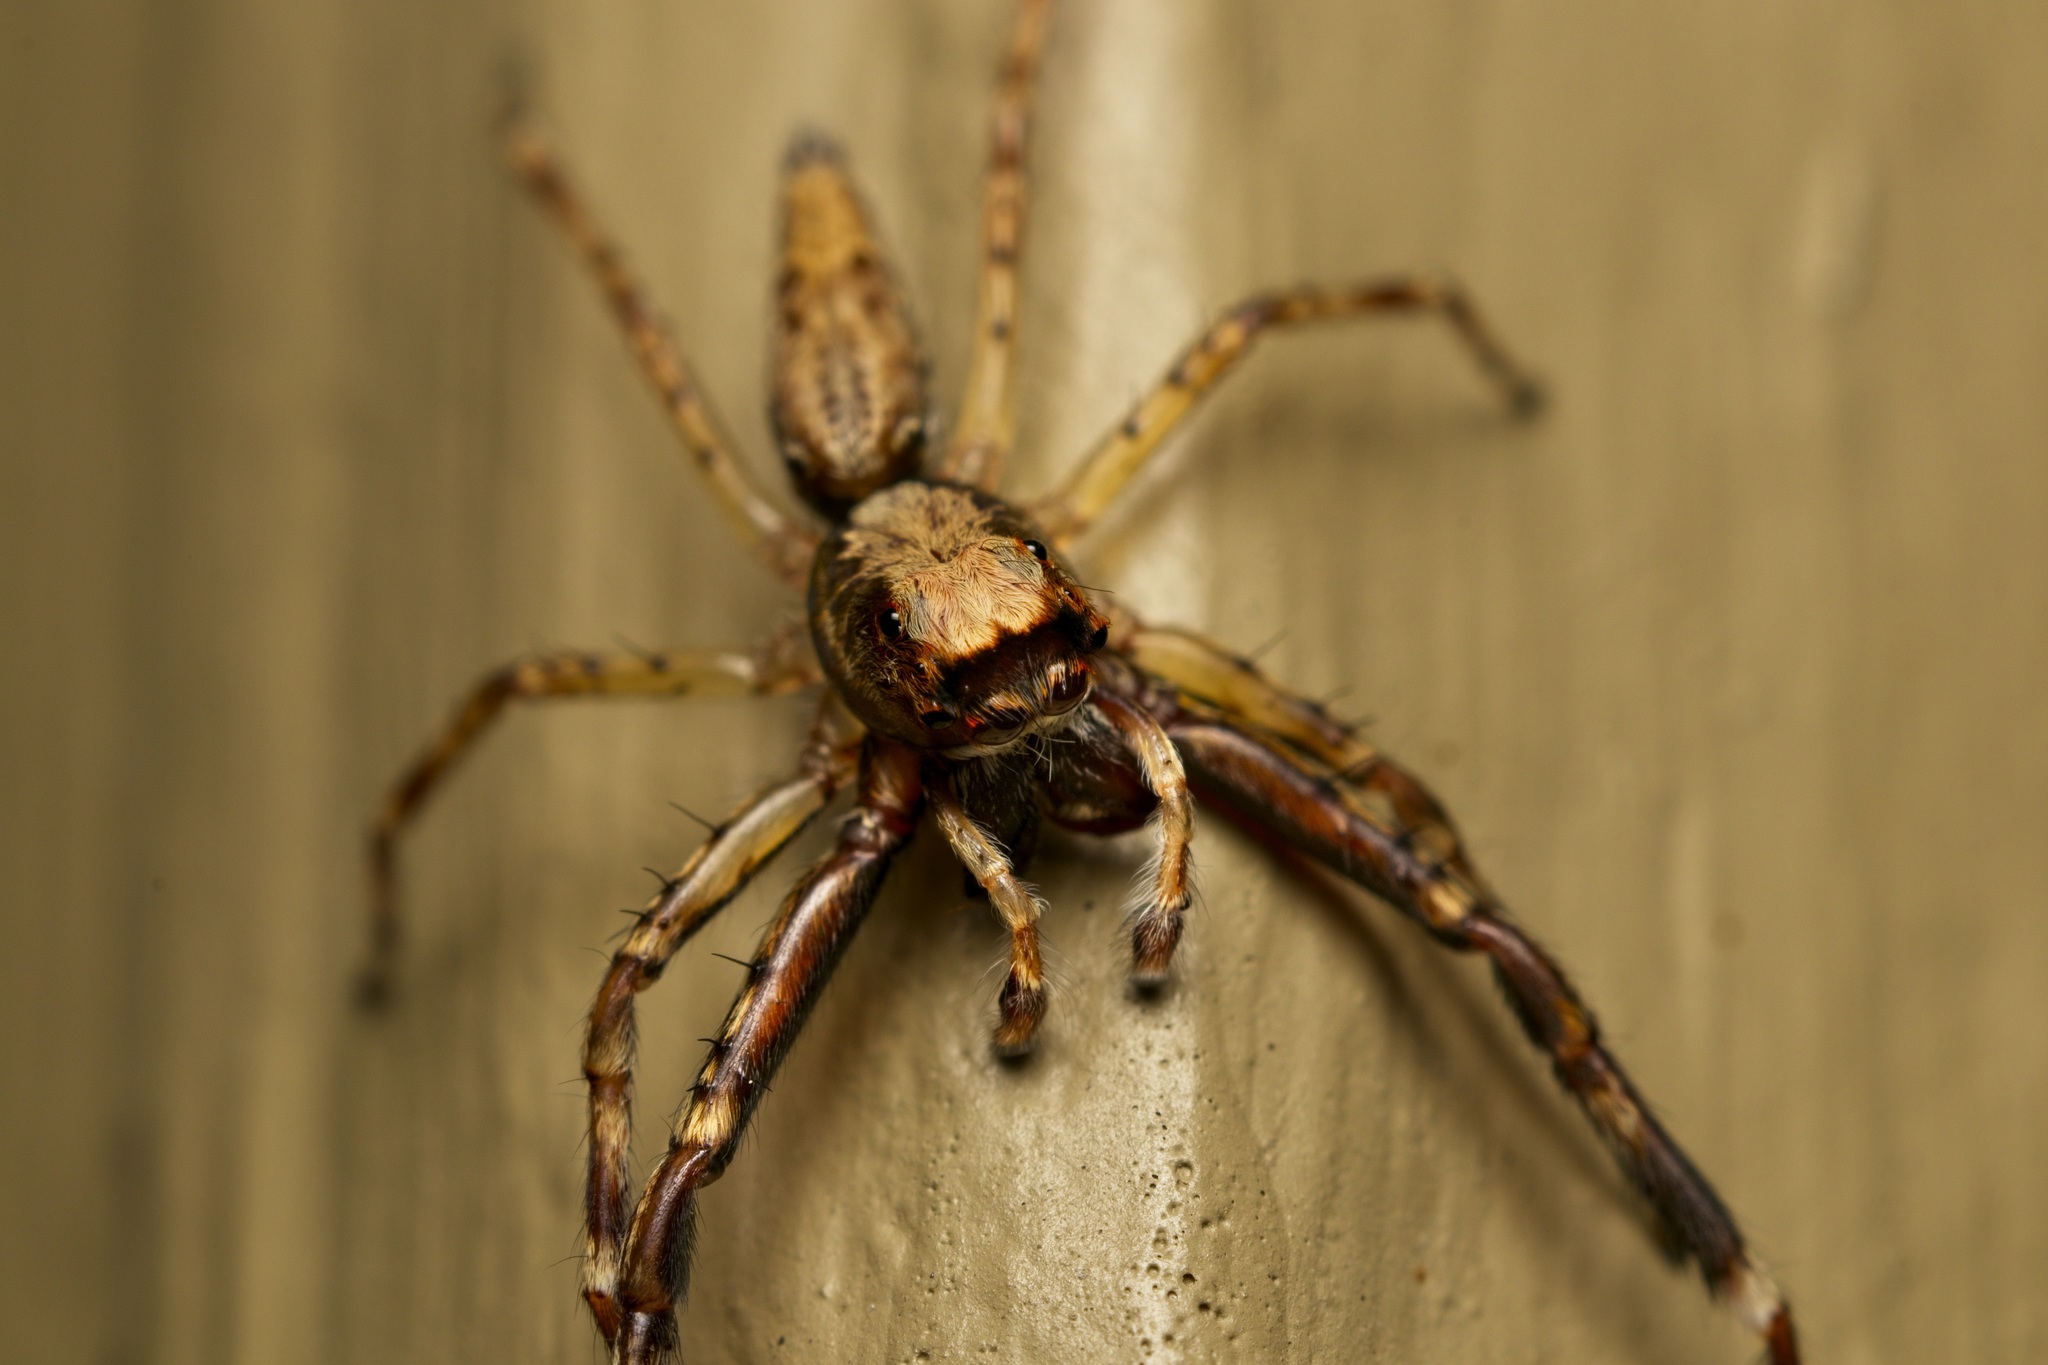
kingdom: Animalia
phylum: Arthropoda
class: Arachnida
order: Araneae
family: Salticidae
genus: Helpis
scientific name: Helpis minitabunda
